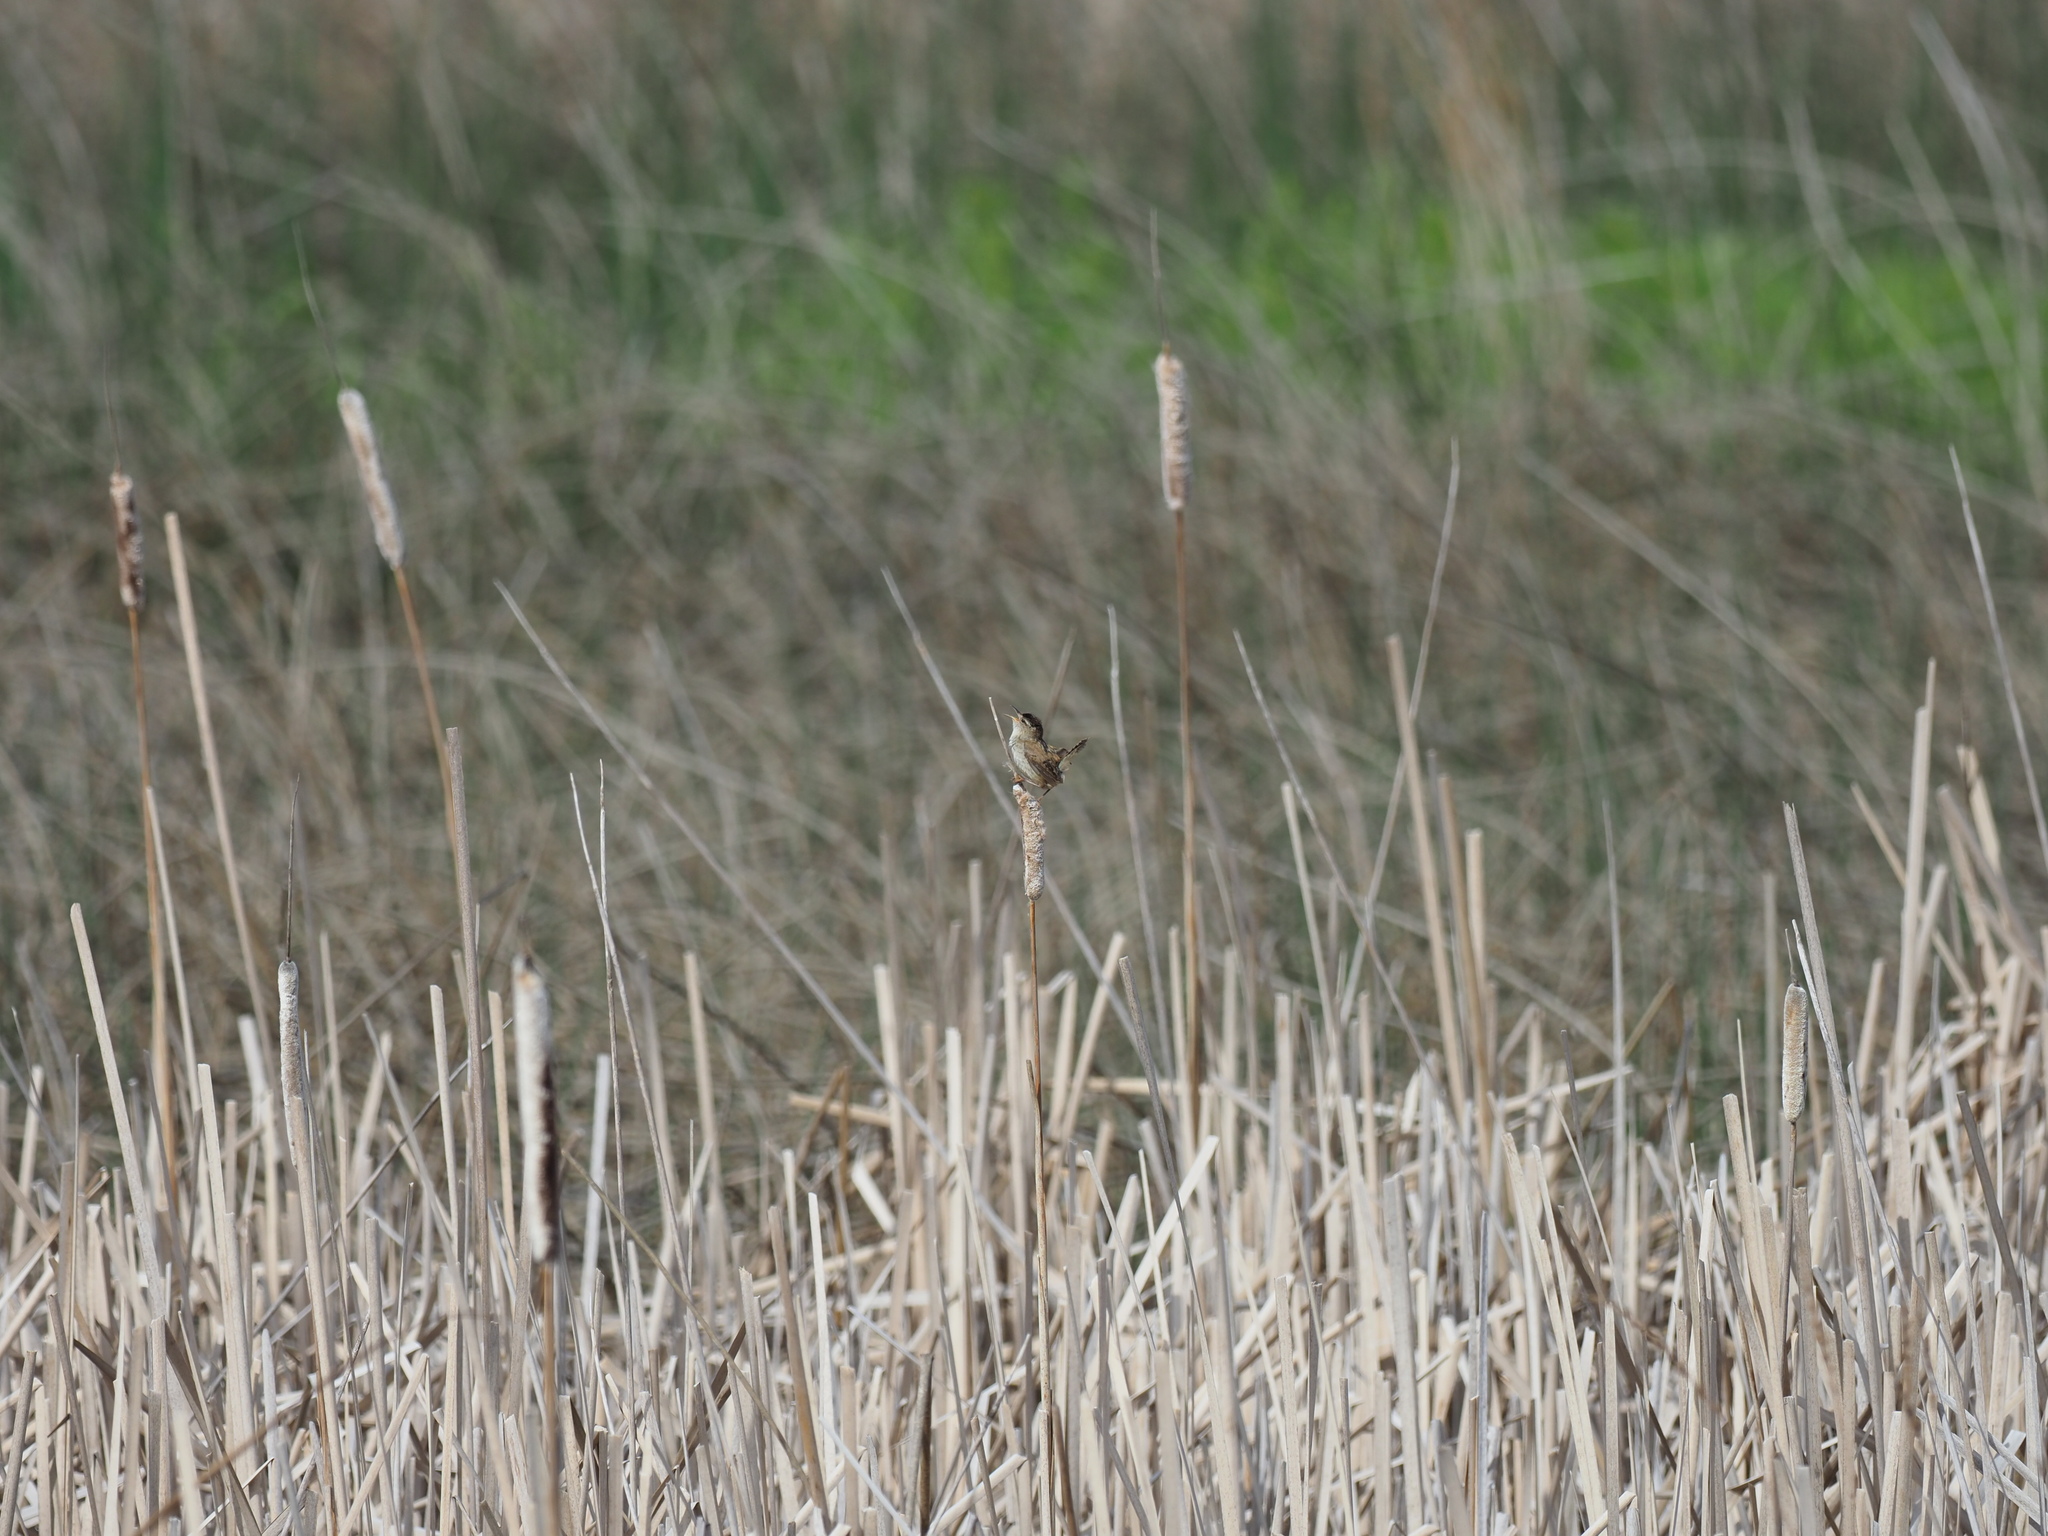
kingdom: Animalia
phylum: Chordata
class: Aves
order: Passeriformes
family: Troglodytidae
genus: Cistothorus
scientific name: Cistothorus palustris
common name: Marsh wren
